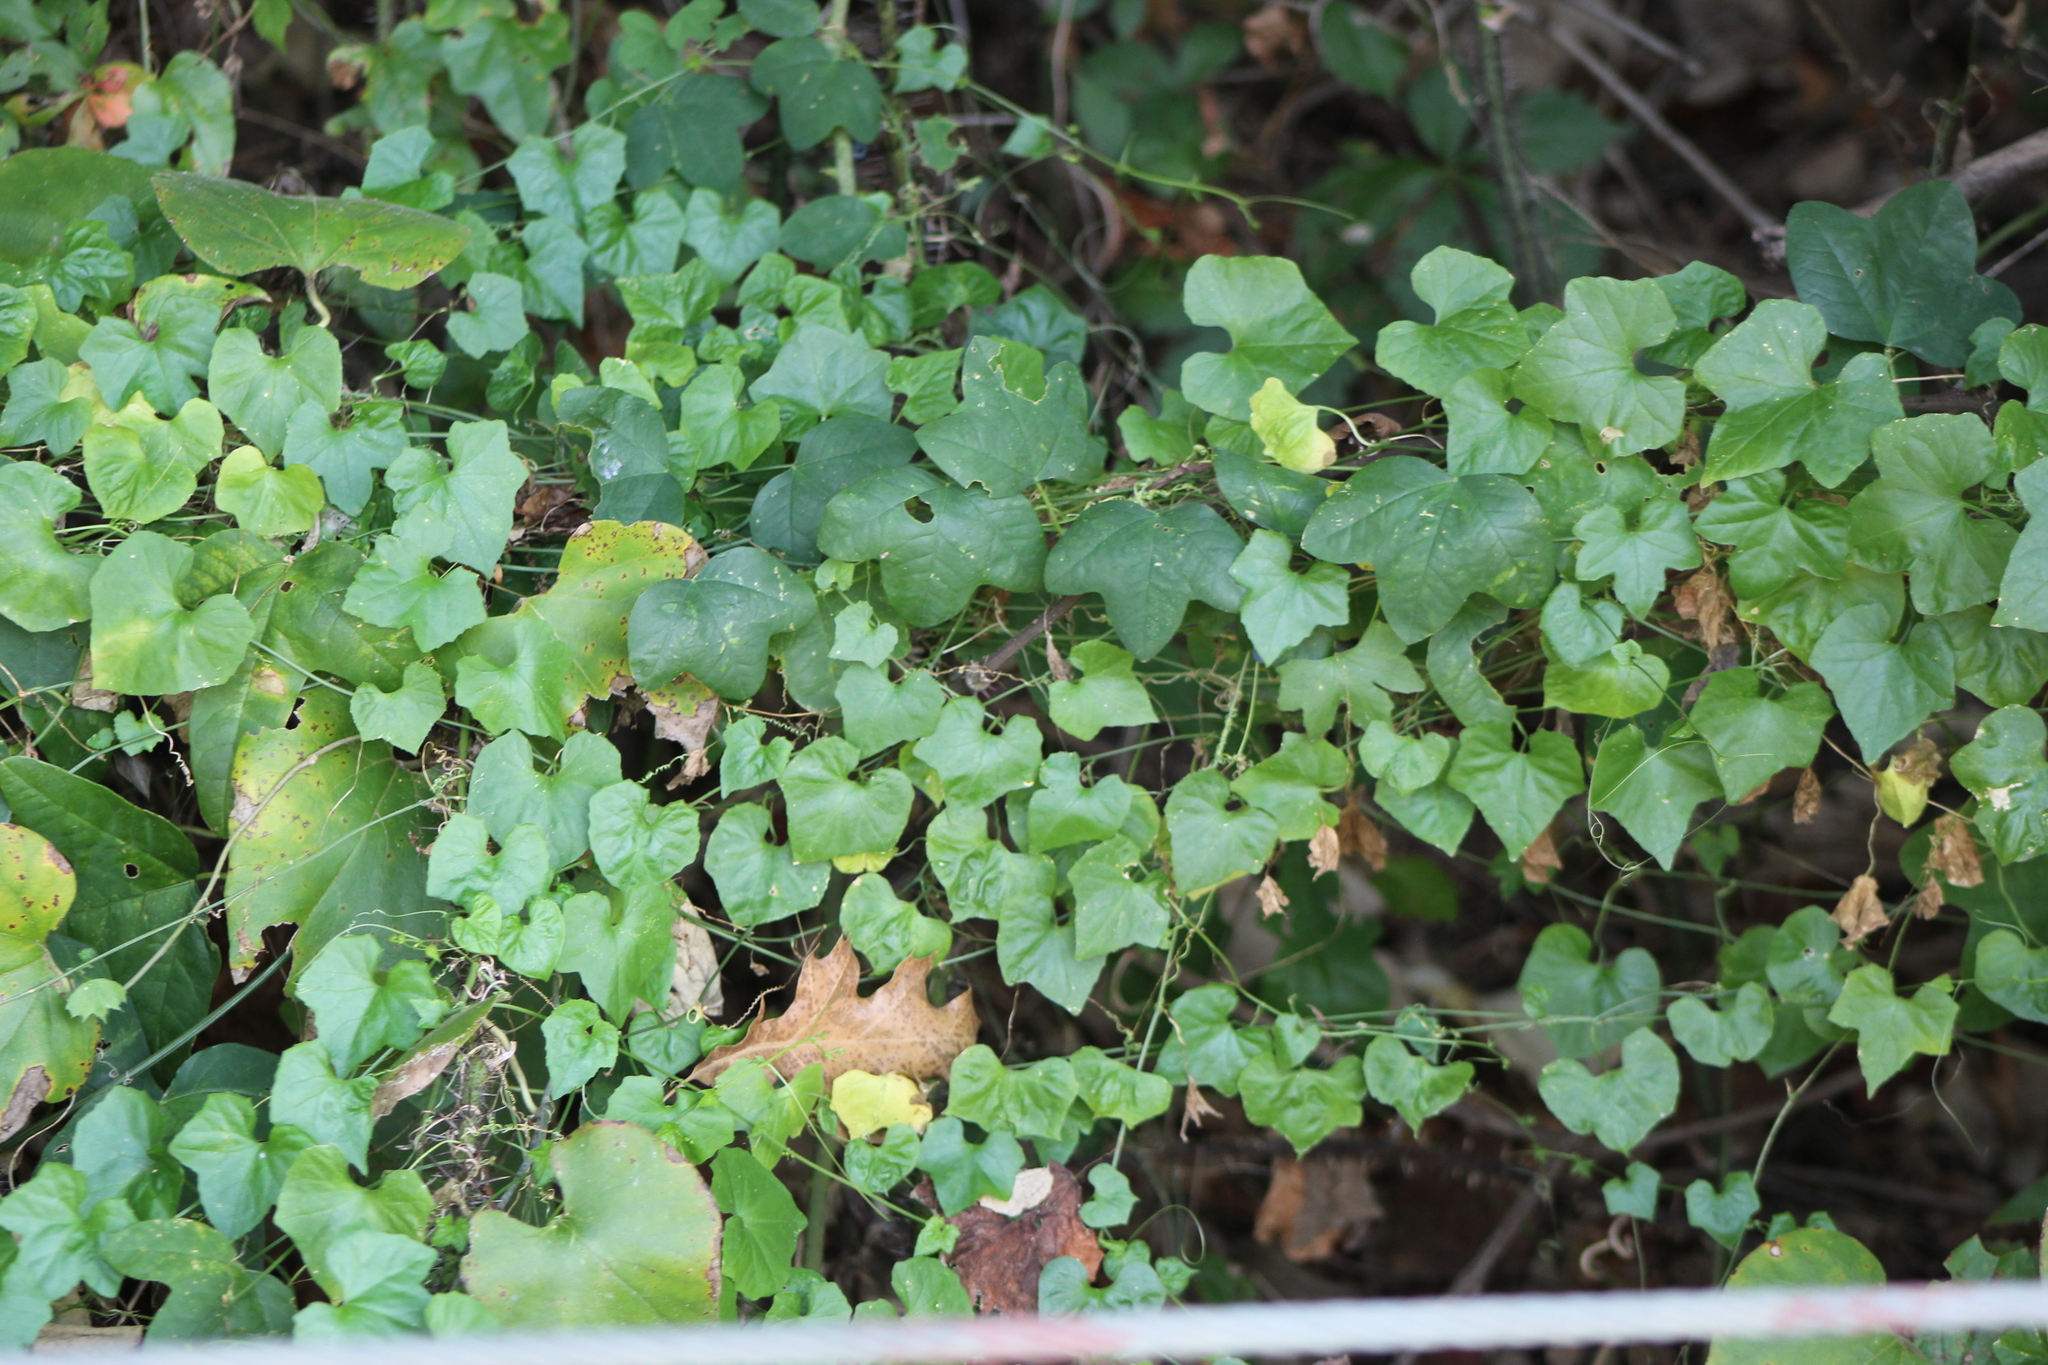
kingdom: Plantae
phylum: Tracheophyta
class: Magnoliopsida
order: Cucurbitales
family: Cucurbitaceae
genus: Melothria
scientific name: Melothria pendula
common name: Creeping-cucumber
